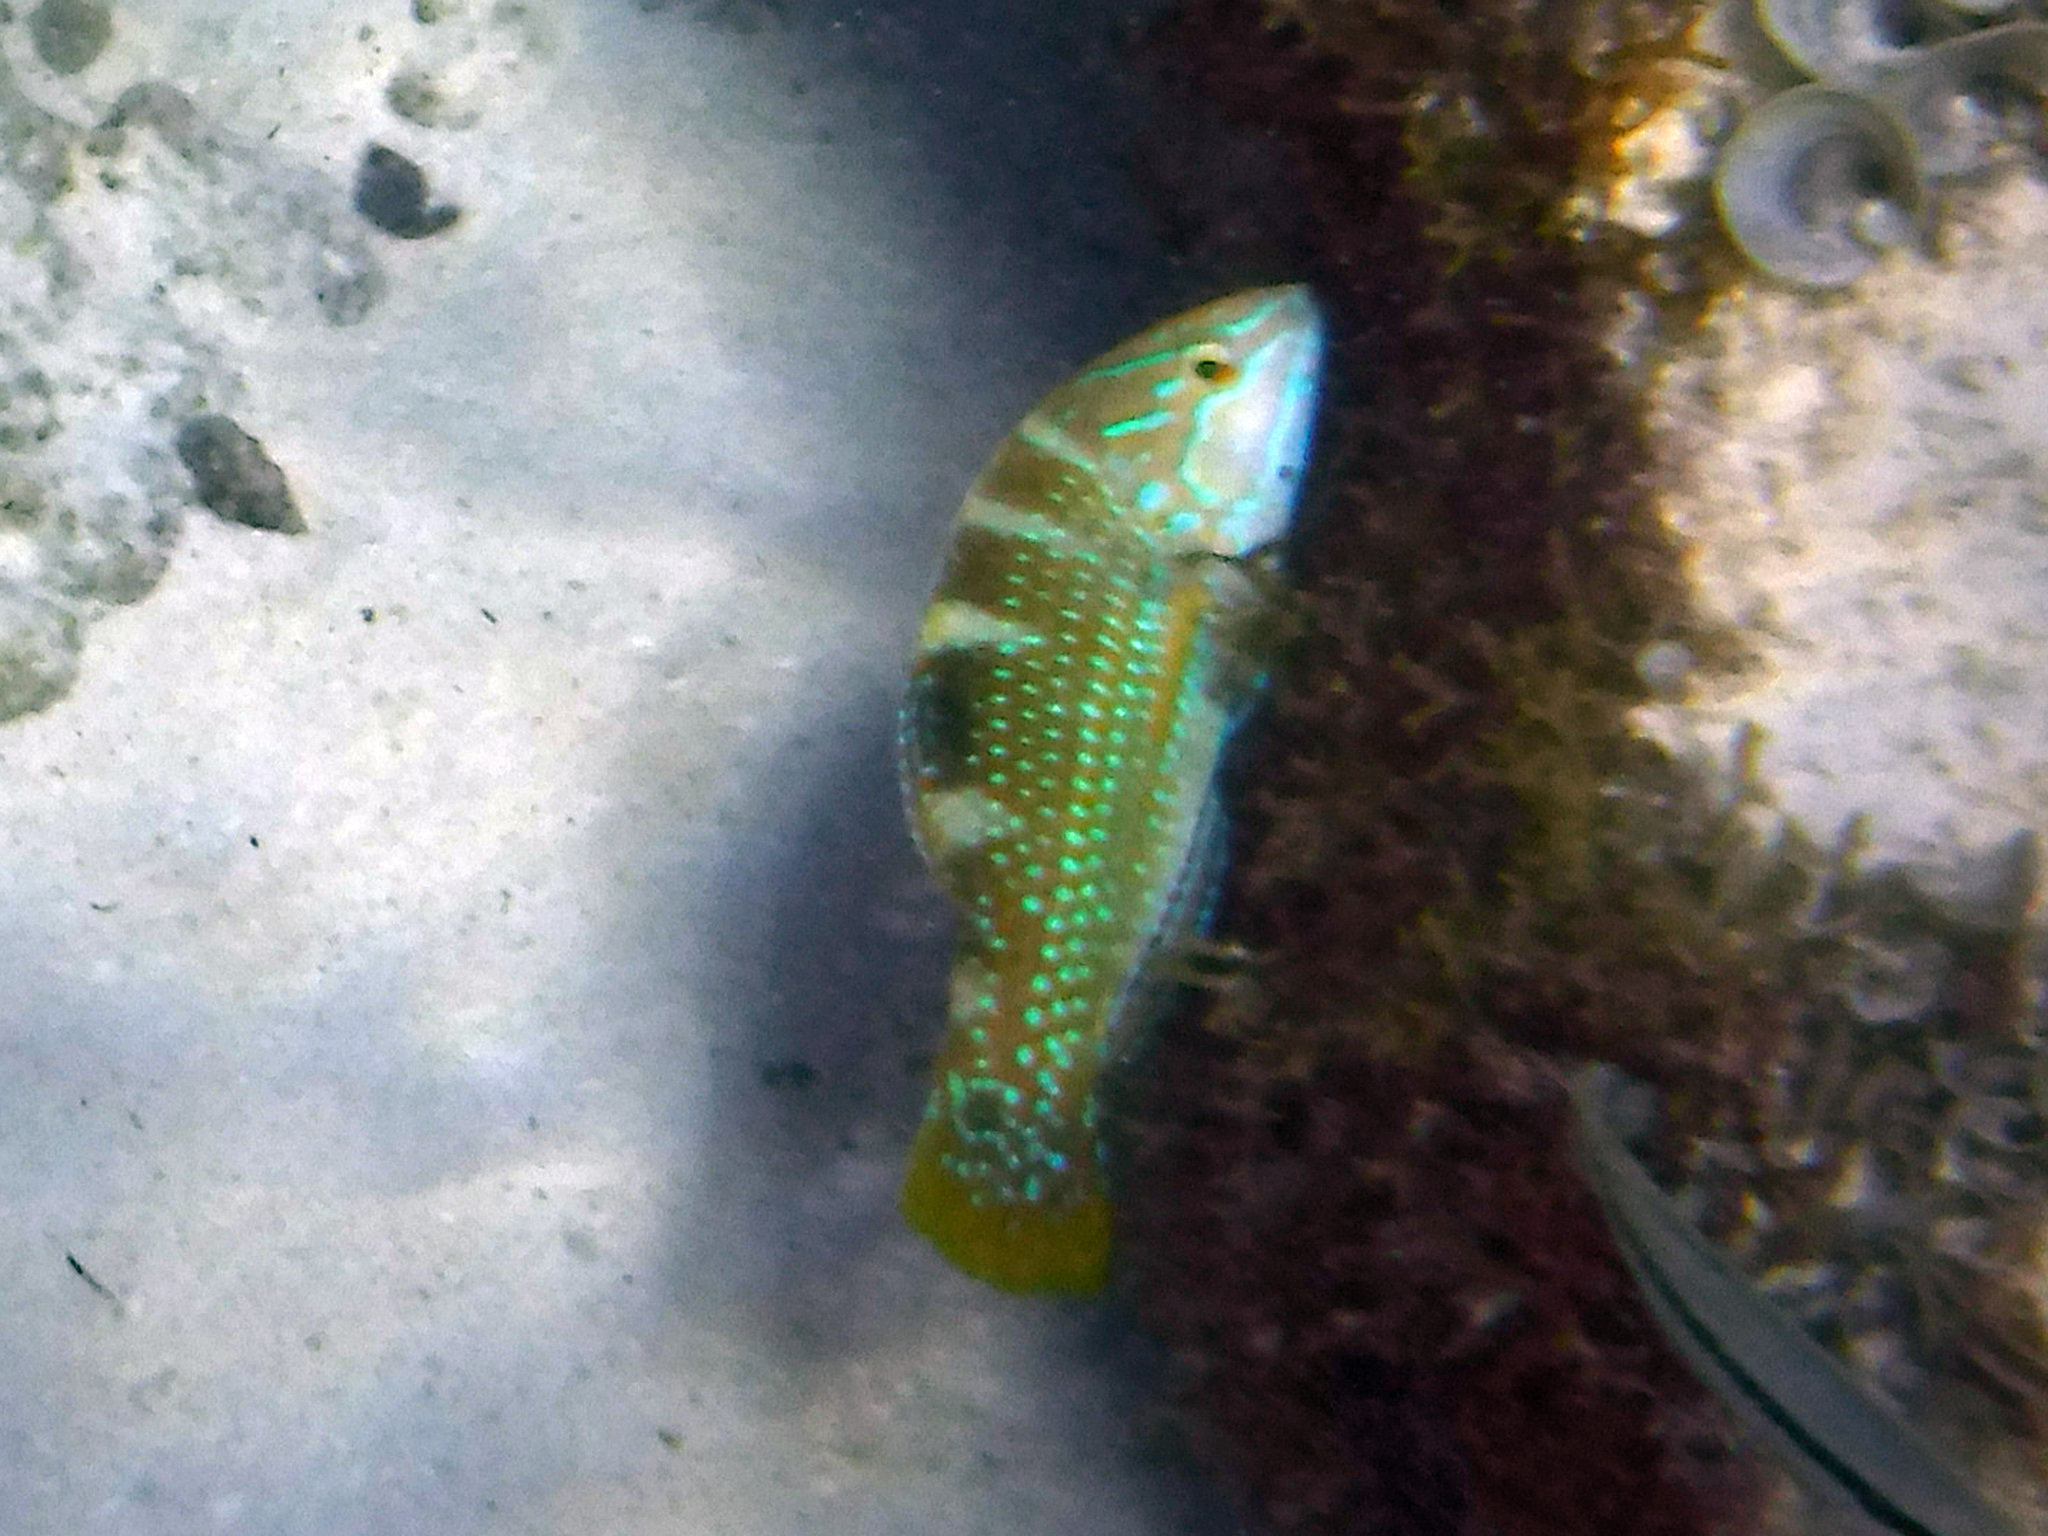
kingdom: Animalia
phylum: Chordata
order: Perciformes
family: Labridae
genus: Halichoeres
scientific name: Halichoeres radiatus
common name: Puddingwife
